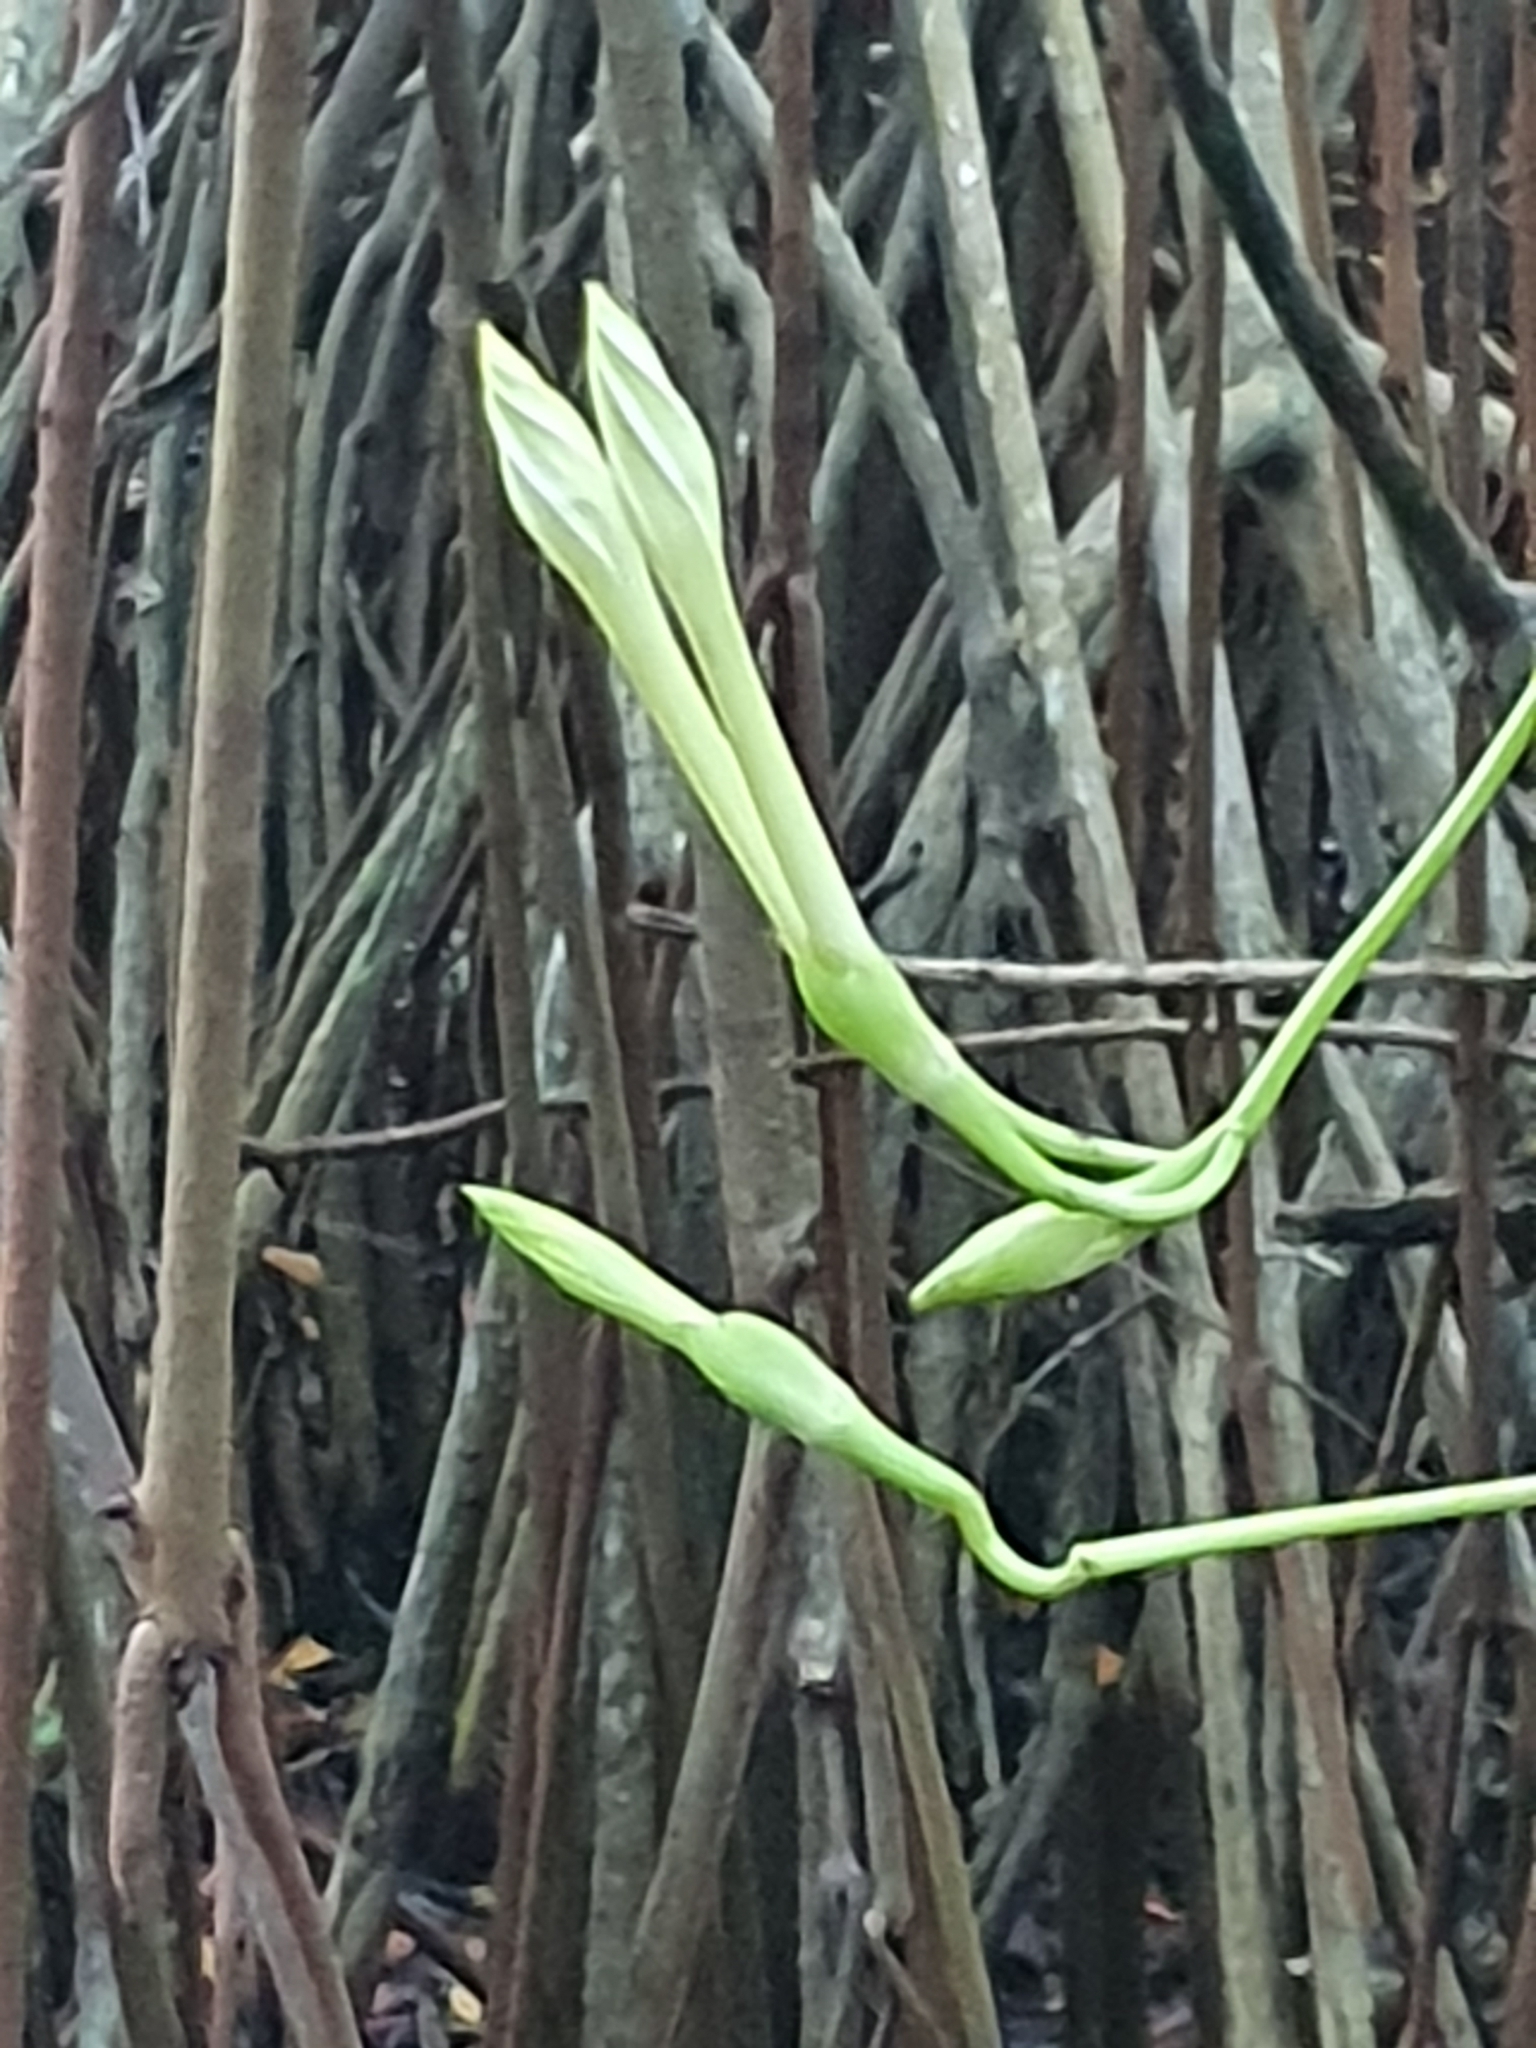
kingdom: Plantae
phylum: Tracheophyta
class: Magnoliopsida
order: Solanales
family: Convolvulaceae
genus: Ipomoea
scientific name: Ipomoea violacea
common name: Beach moonflower
